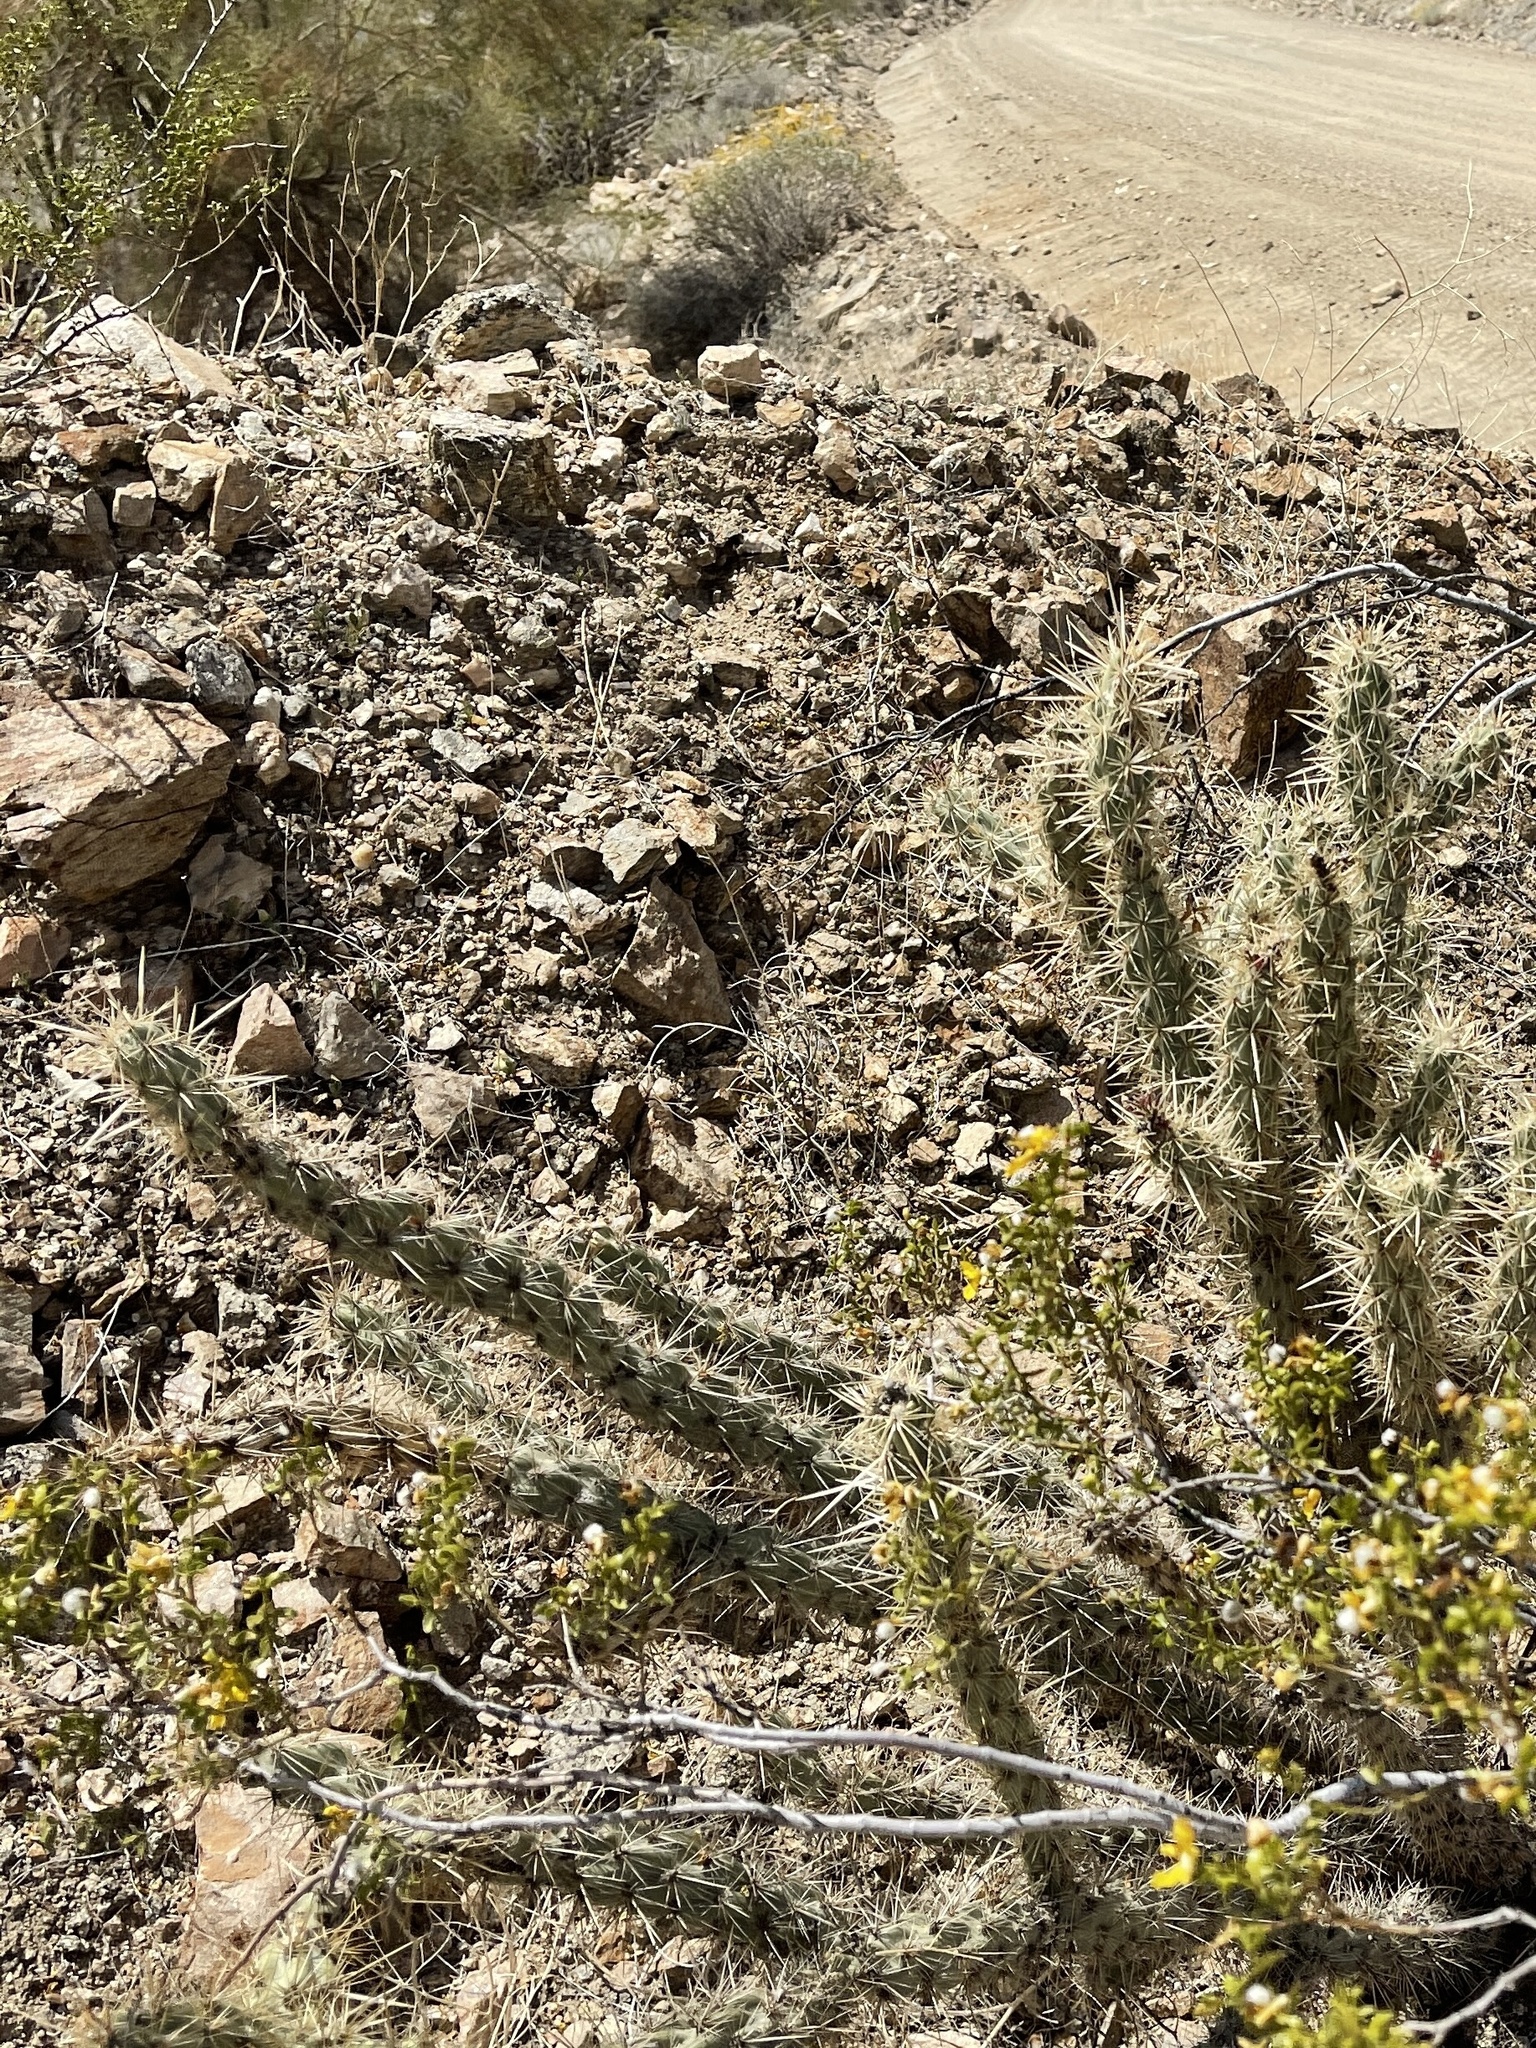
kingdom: Plantae
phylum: Tracheophyta
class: Magnoliopsida
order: Caryophyllales
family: Cactaceae
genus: Cylindropuntia
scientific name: Cylindropuntia acanthocarpa
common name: Buckhorn cholla
